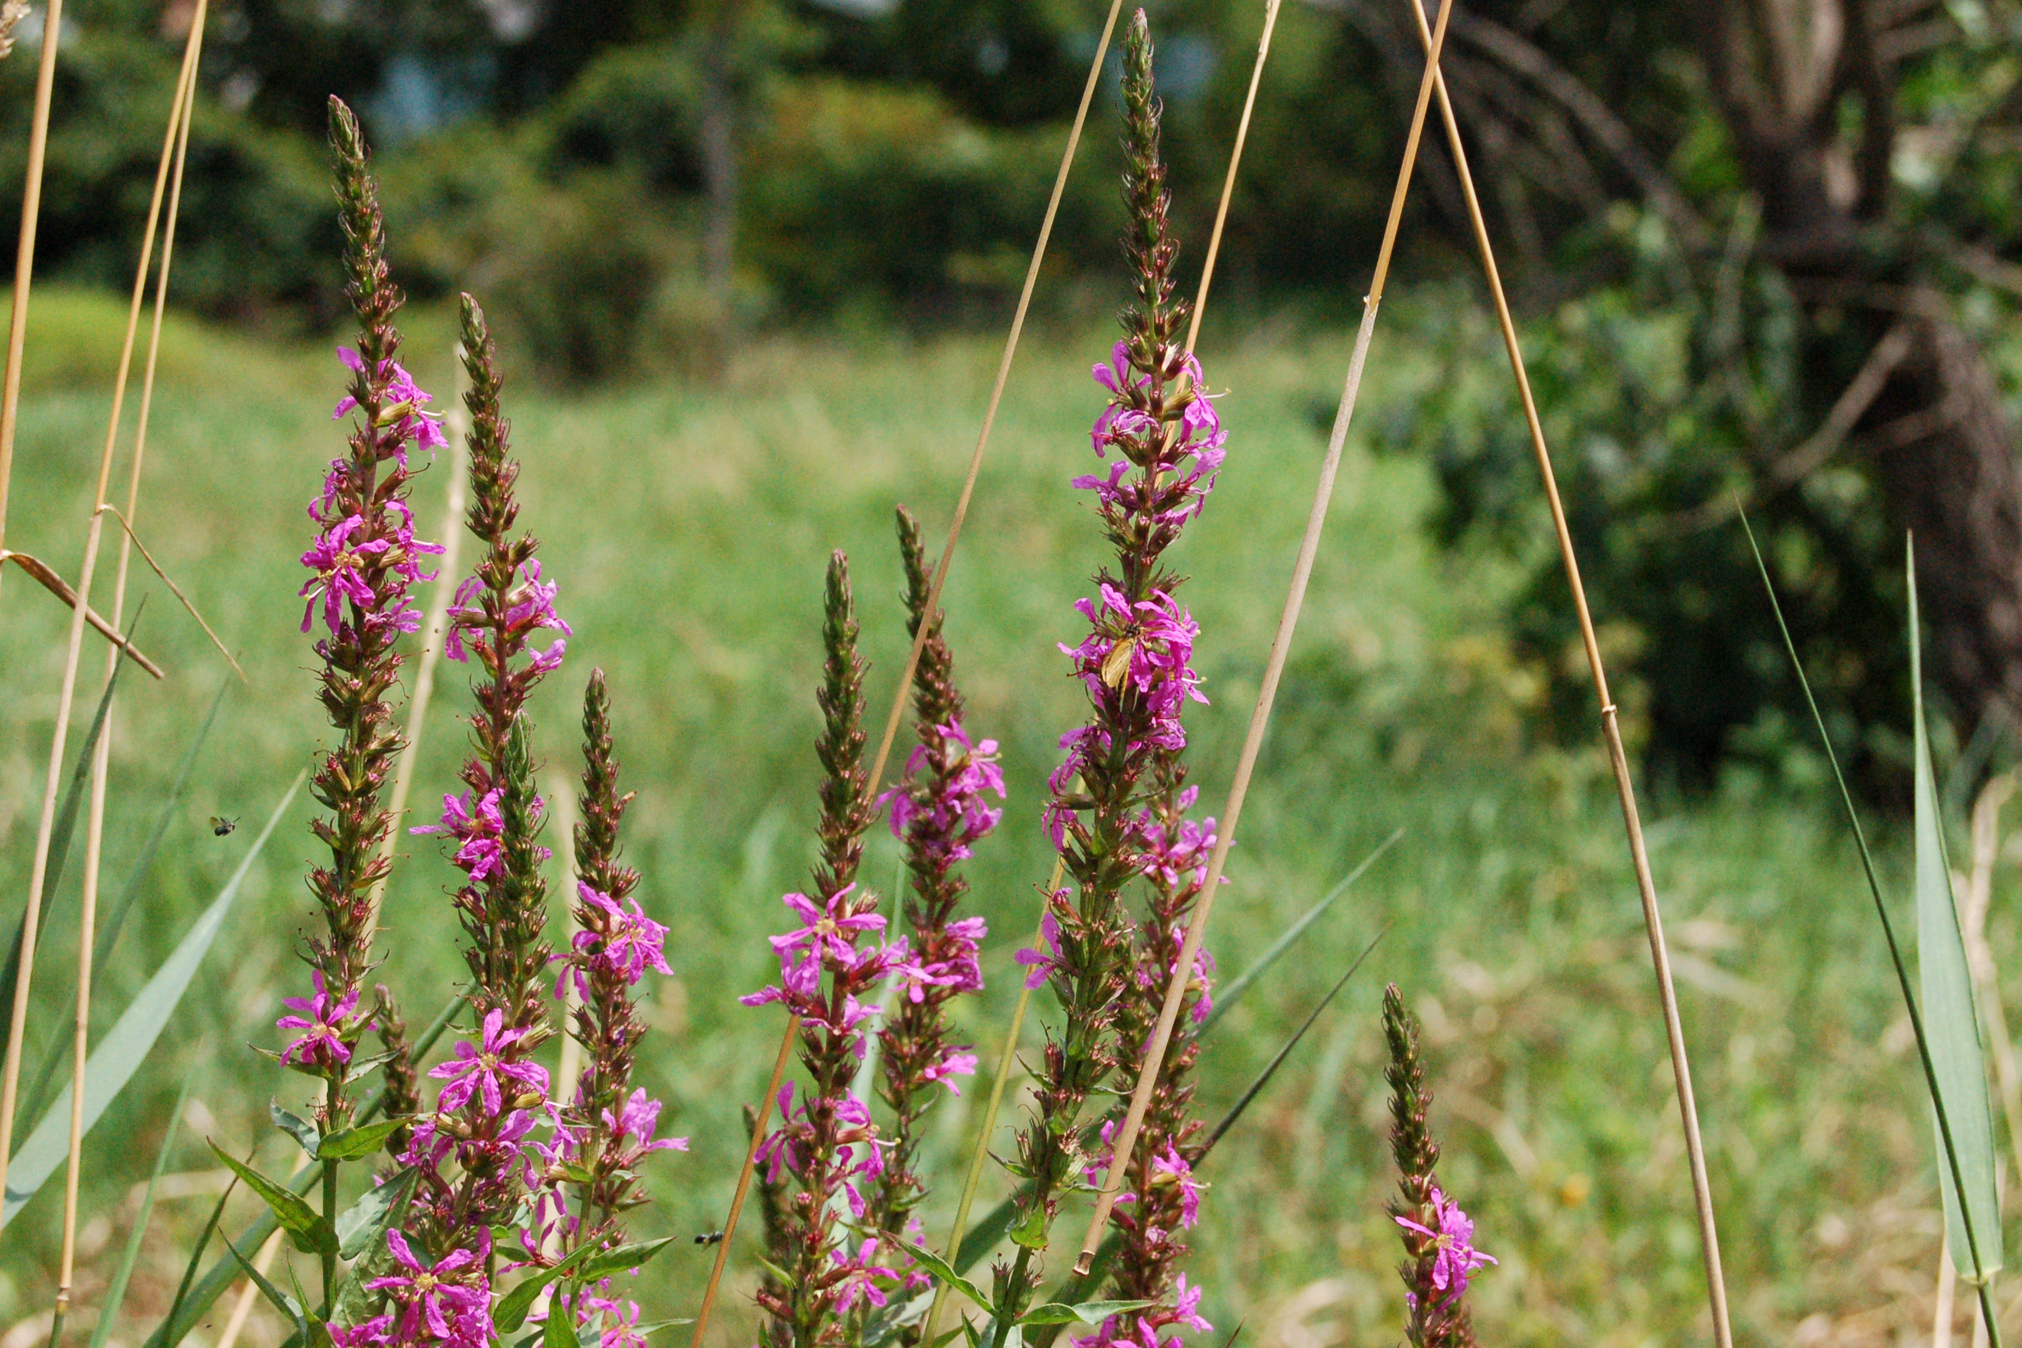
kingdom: Plantae
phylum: Tracheophyta
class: Magnoliopsida
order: Myrtales
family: Lythraceae
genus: Lythrum
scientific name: Lythrum salicaria
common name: Purple loosestrife
